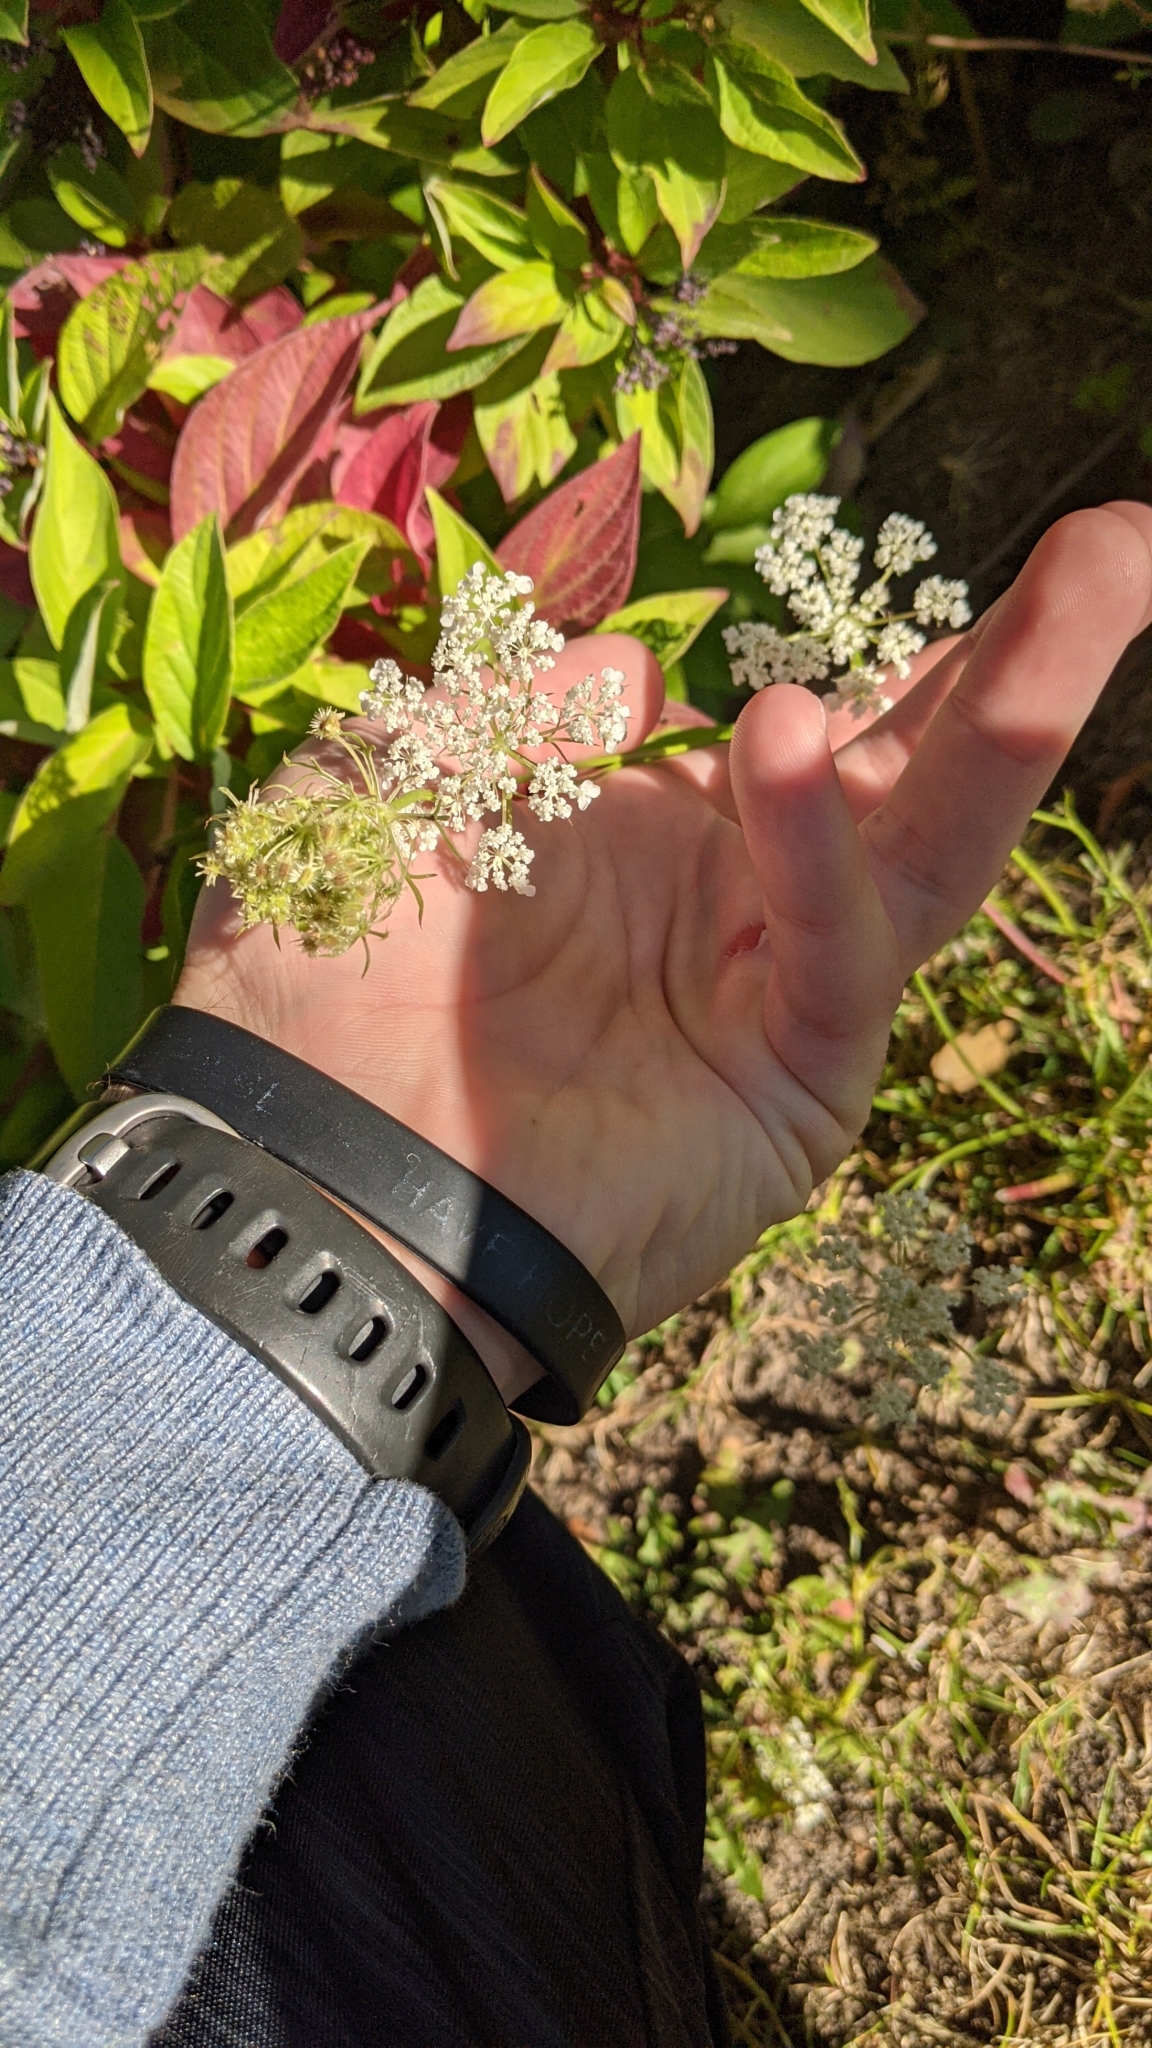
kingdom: Plantae
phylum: Tracheophyta
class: Magnoliopsida
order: Apiales
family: Apiaceae
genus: Daucus
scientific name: Daucus carota
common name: Wild carrot
